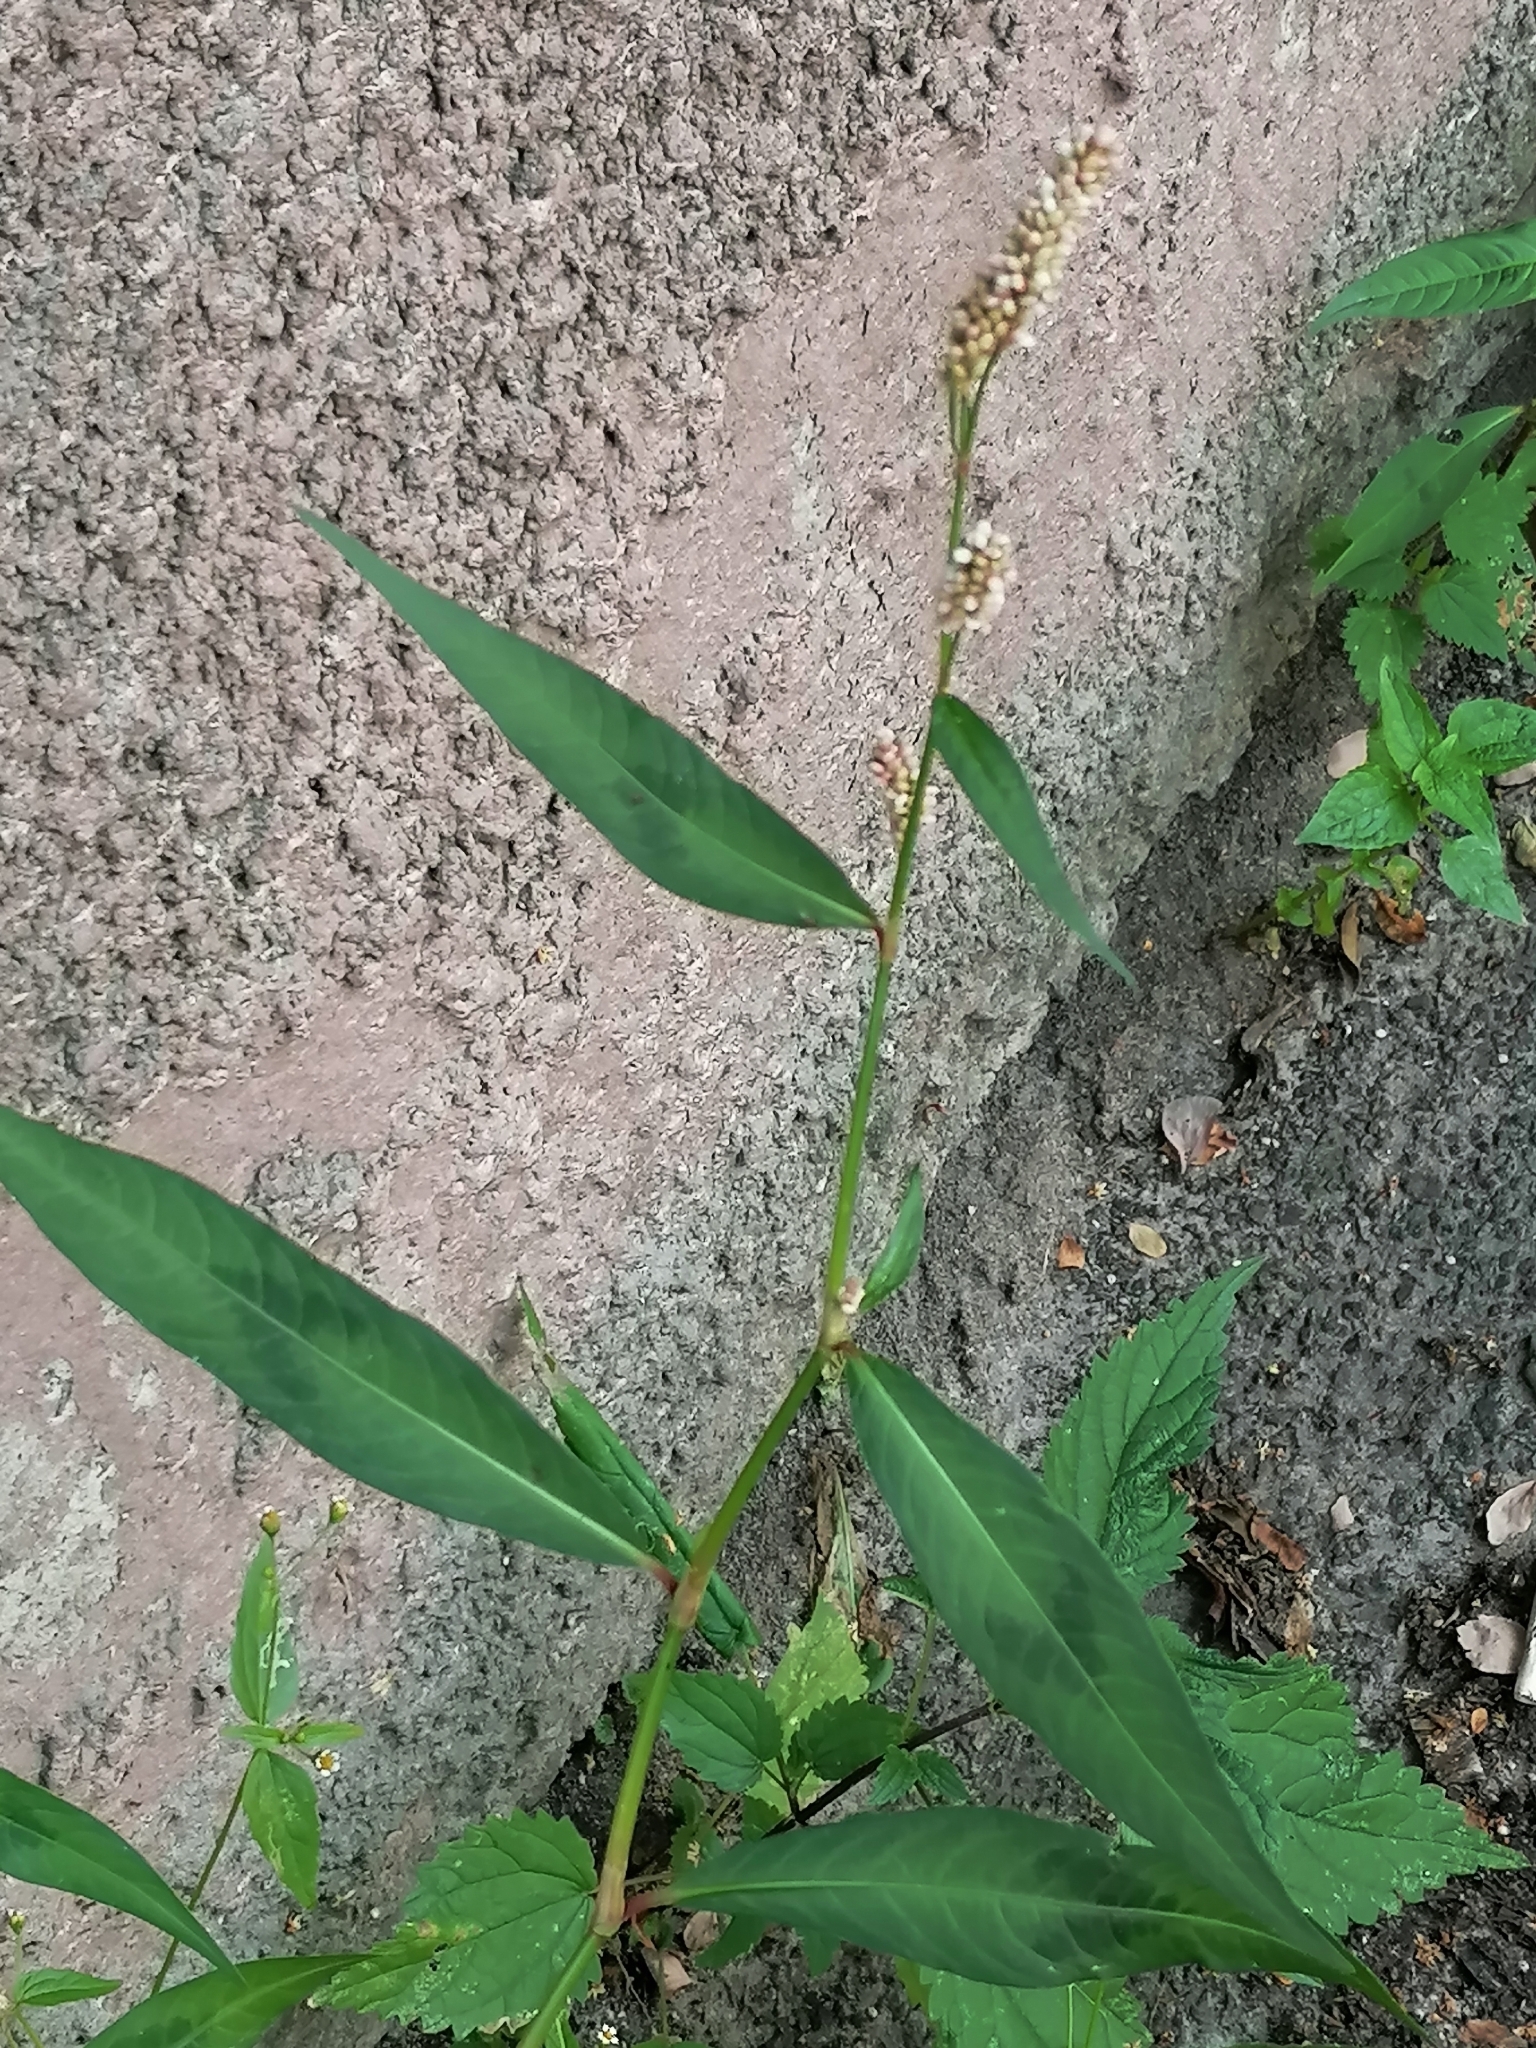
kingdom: Plantae
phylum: Tracheophyta
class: Magnoliopsida
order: Caryophyllales
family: Polygonaceae
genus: Persicaria
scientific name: Persicaria lapathifolia
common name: Curlytop knotweed
